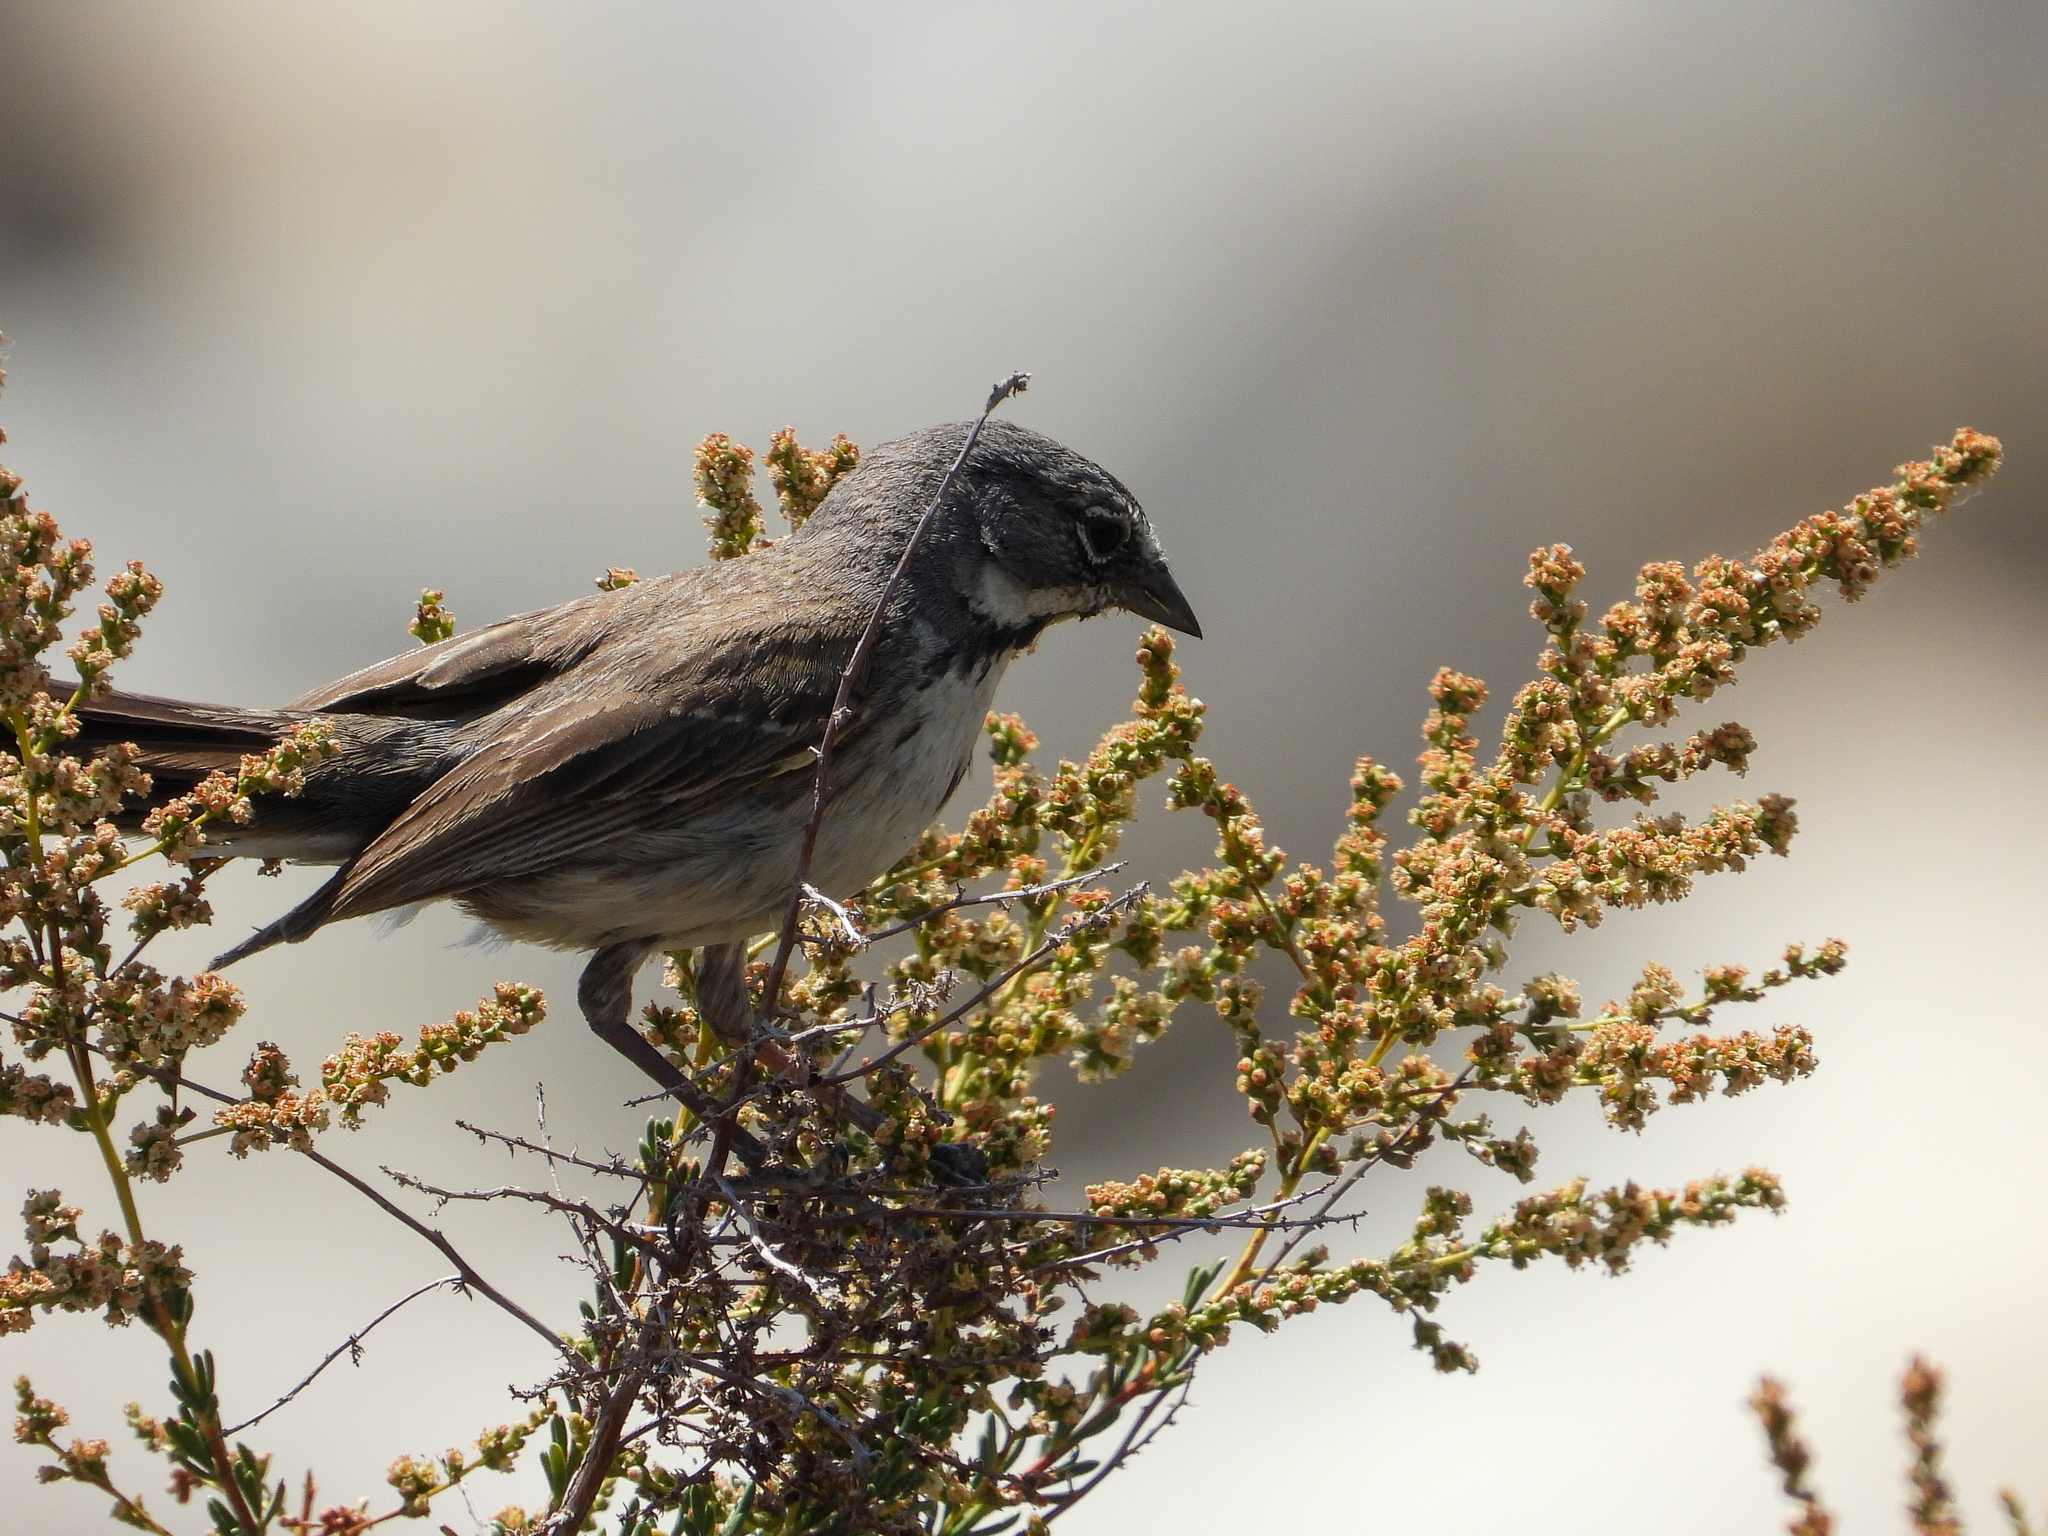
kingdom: Animalia
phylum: Chordata
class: Aves
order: Passeriformes
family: Passerellidae
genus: Artemisiospiza
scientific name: Artemisiospiza belli
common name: Bell's sparrow
